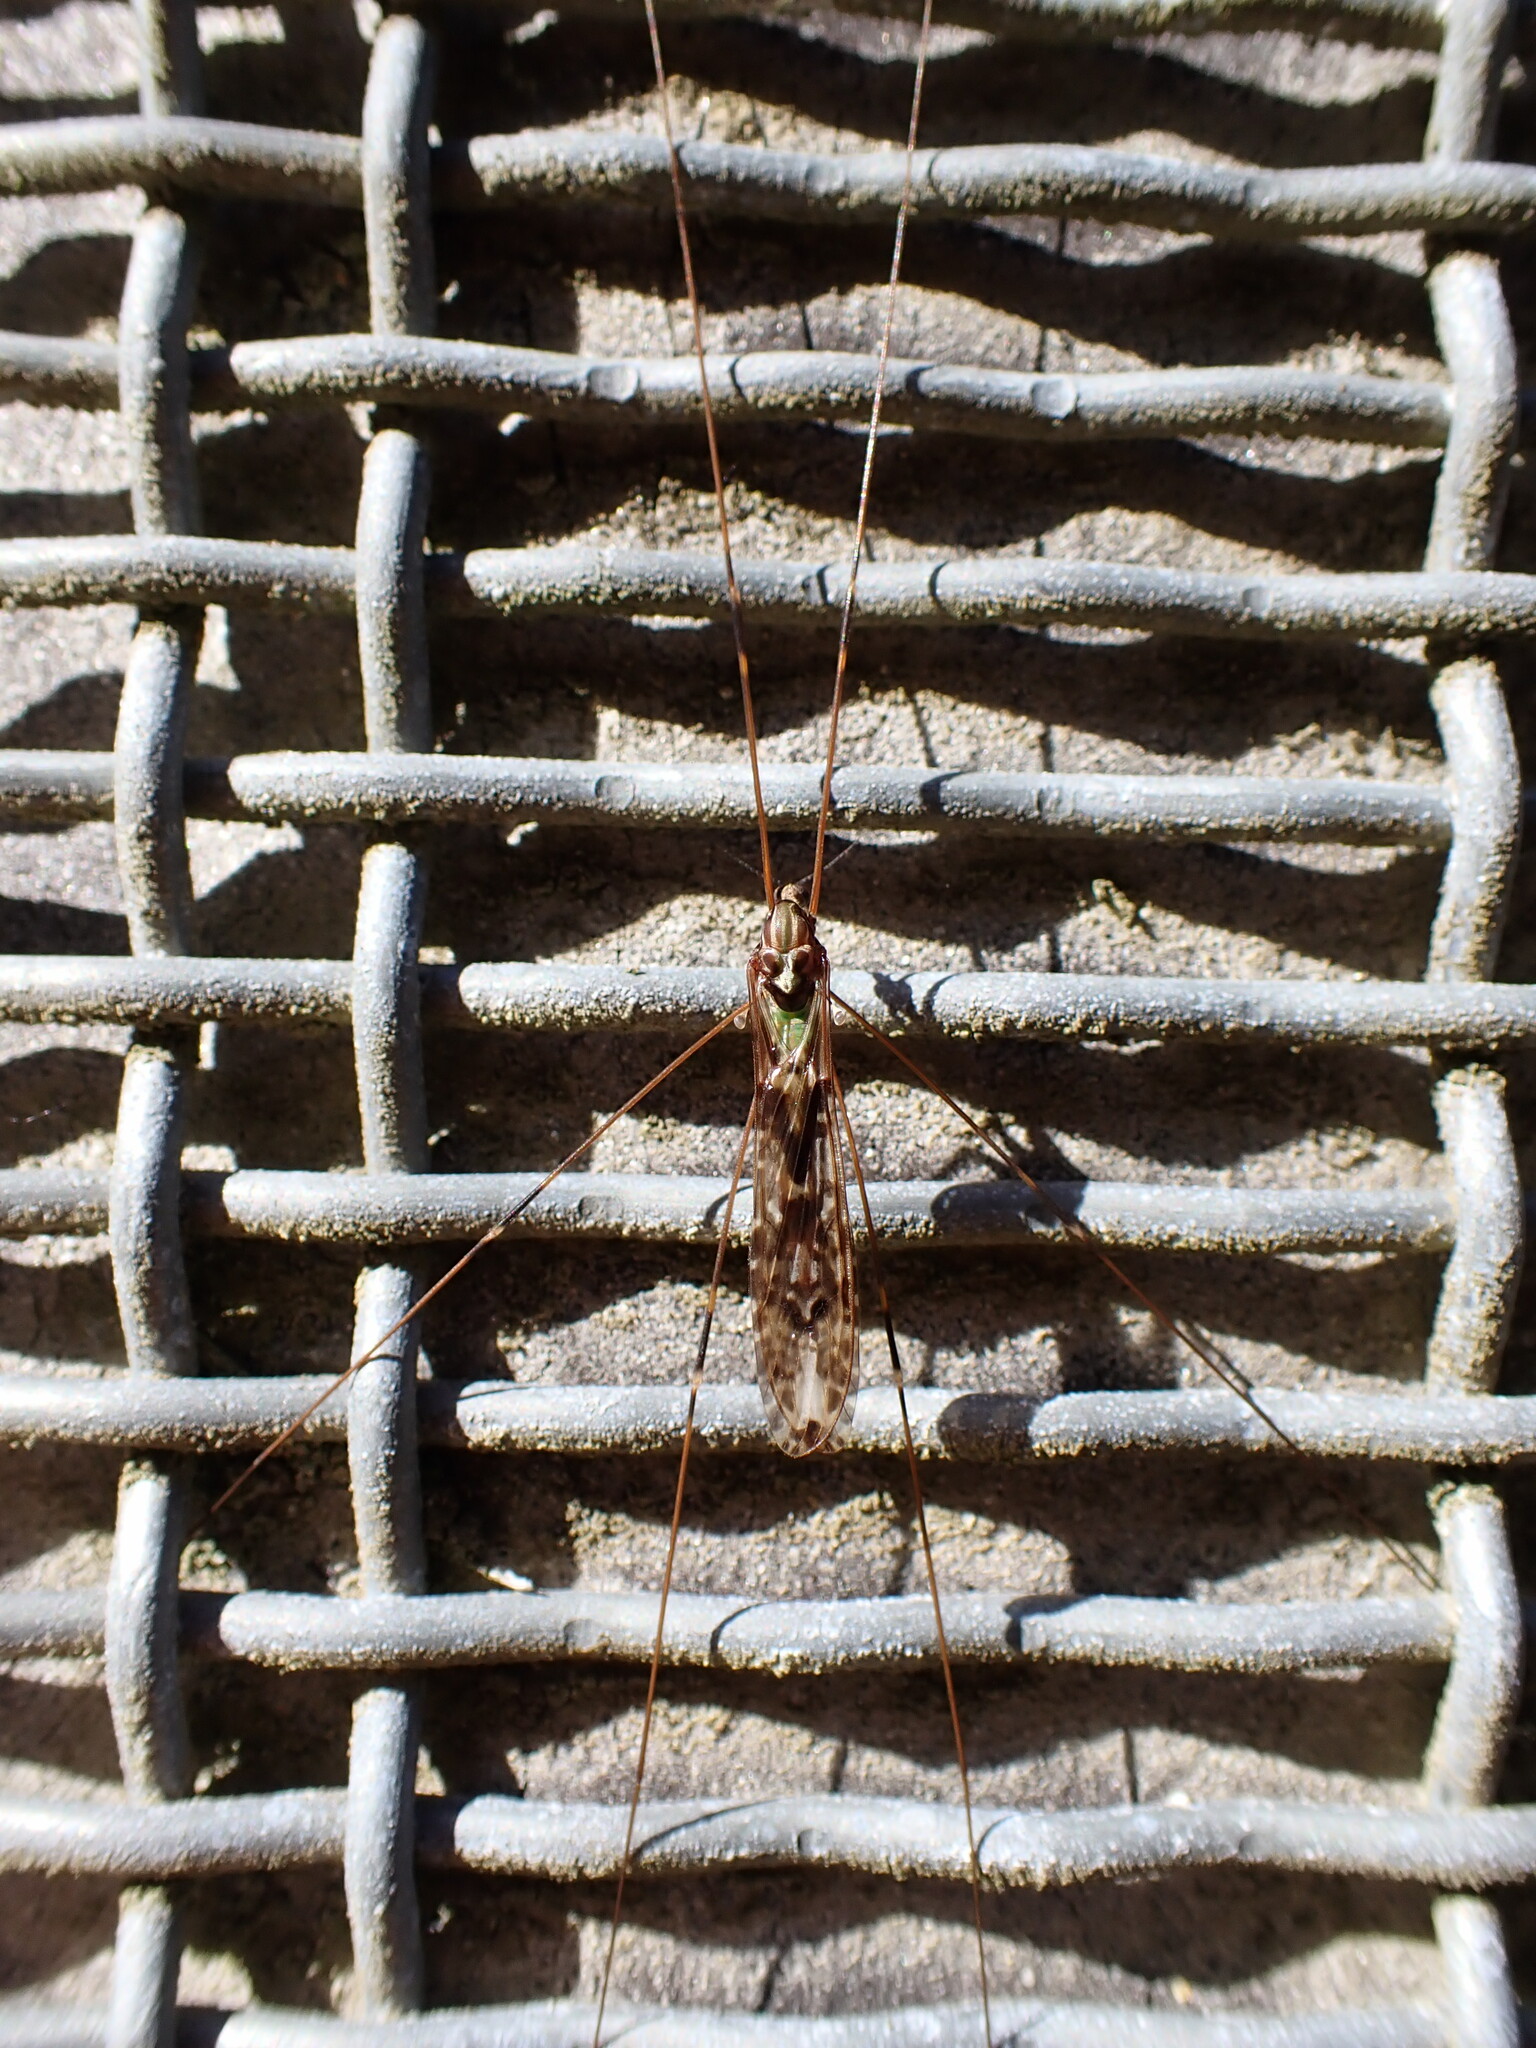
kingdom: Animalia
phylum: Arthropoda
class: Insecta
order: Diptera
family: Limoniidae
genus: Discobola
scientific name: Discobola dohrni
